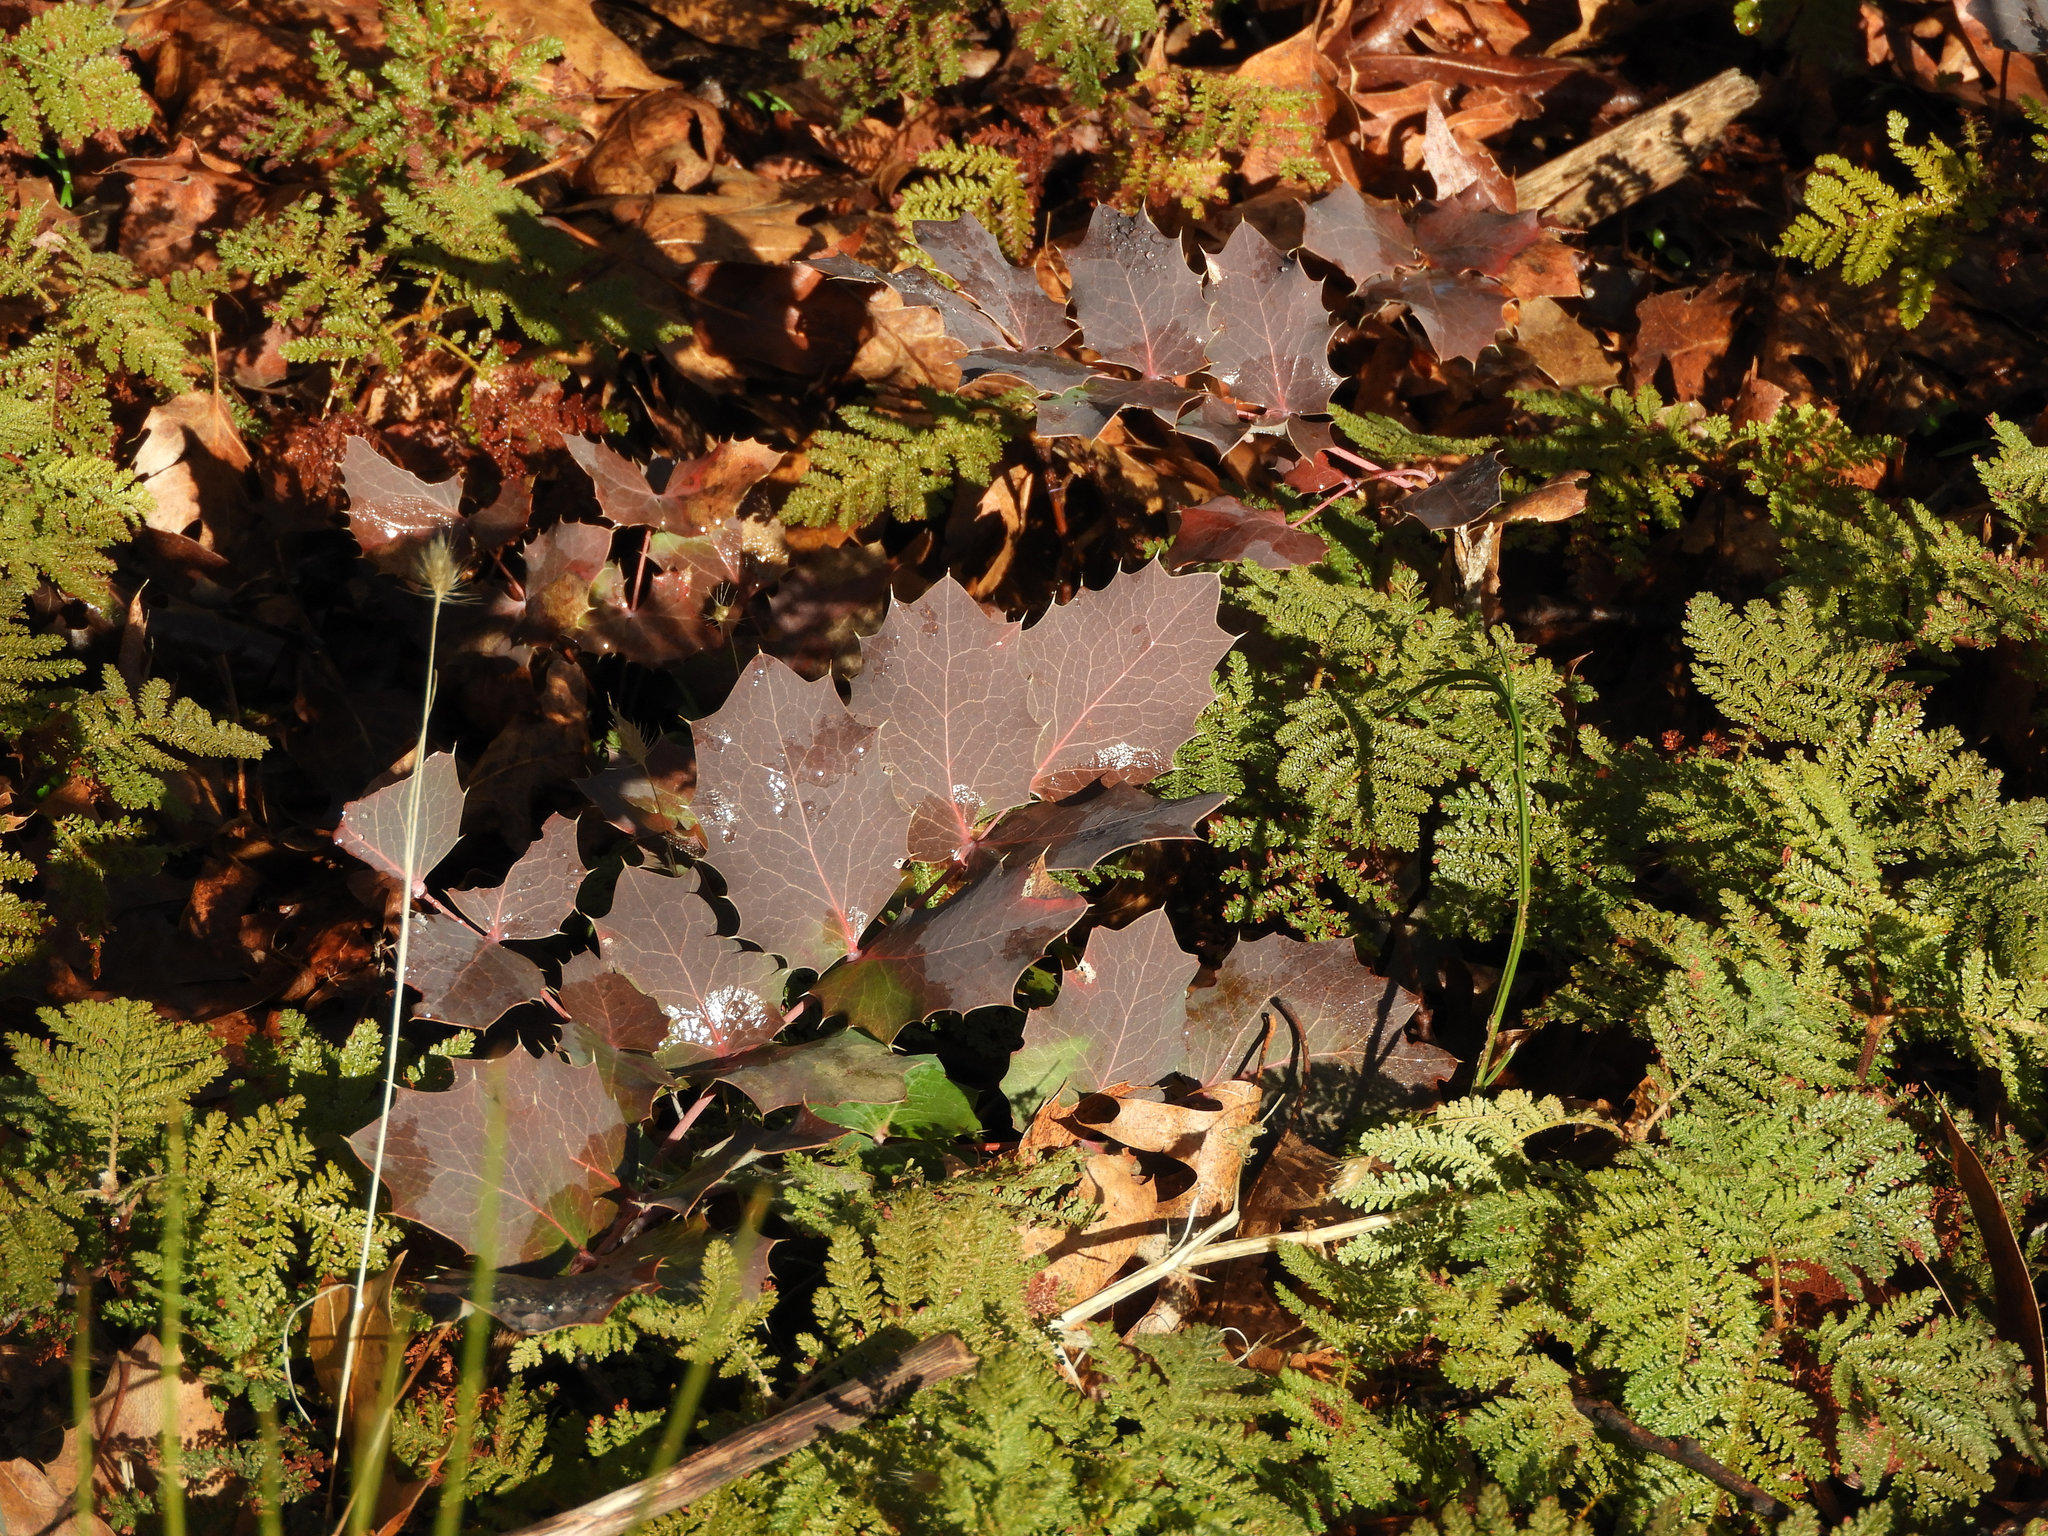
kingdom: Plantae
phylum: Tracheophyta
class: Magnoliopsida
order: Ranunculales
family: Berberidaceae
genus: Mahonia
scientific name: Mahonia dictyota
